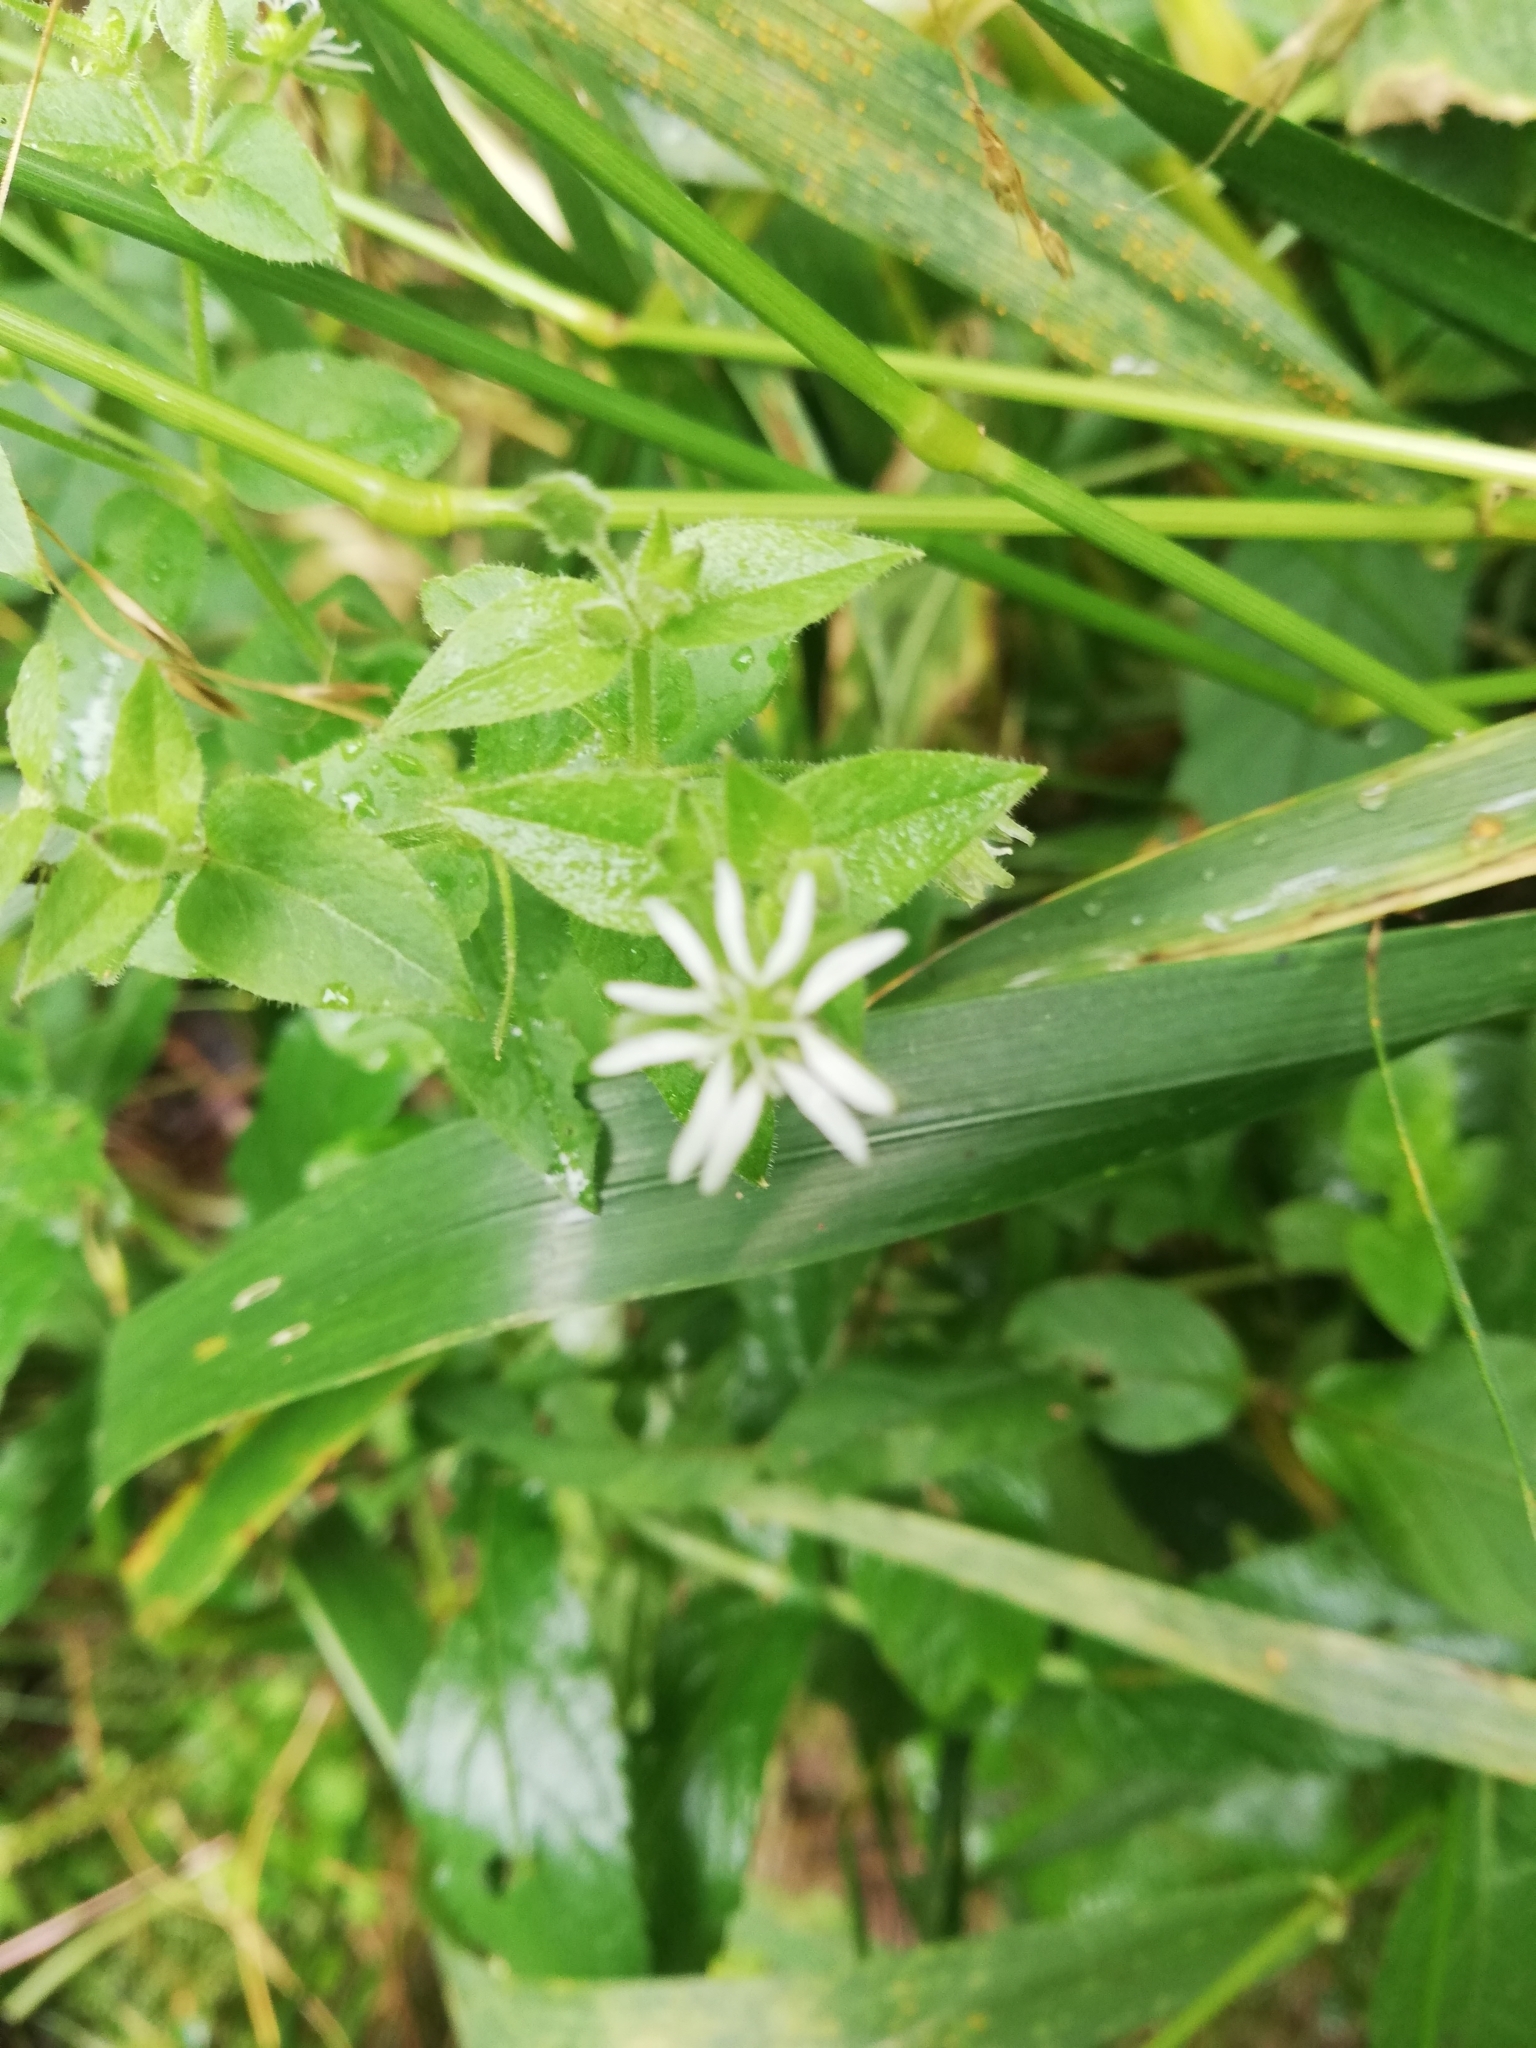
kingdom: Plantae
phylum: Tracheophyta
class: Magnoliopsida
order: Caryophyllales
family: Caryophyllaceae
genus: Stellaria
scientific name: Stellaria aquatica
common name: Water chickweed
